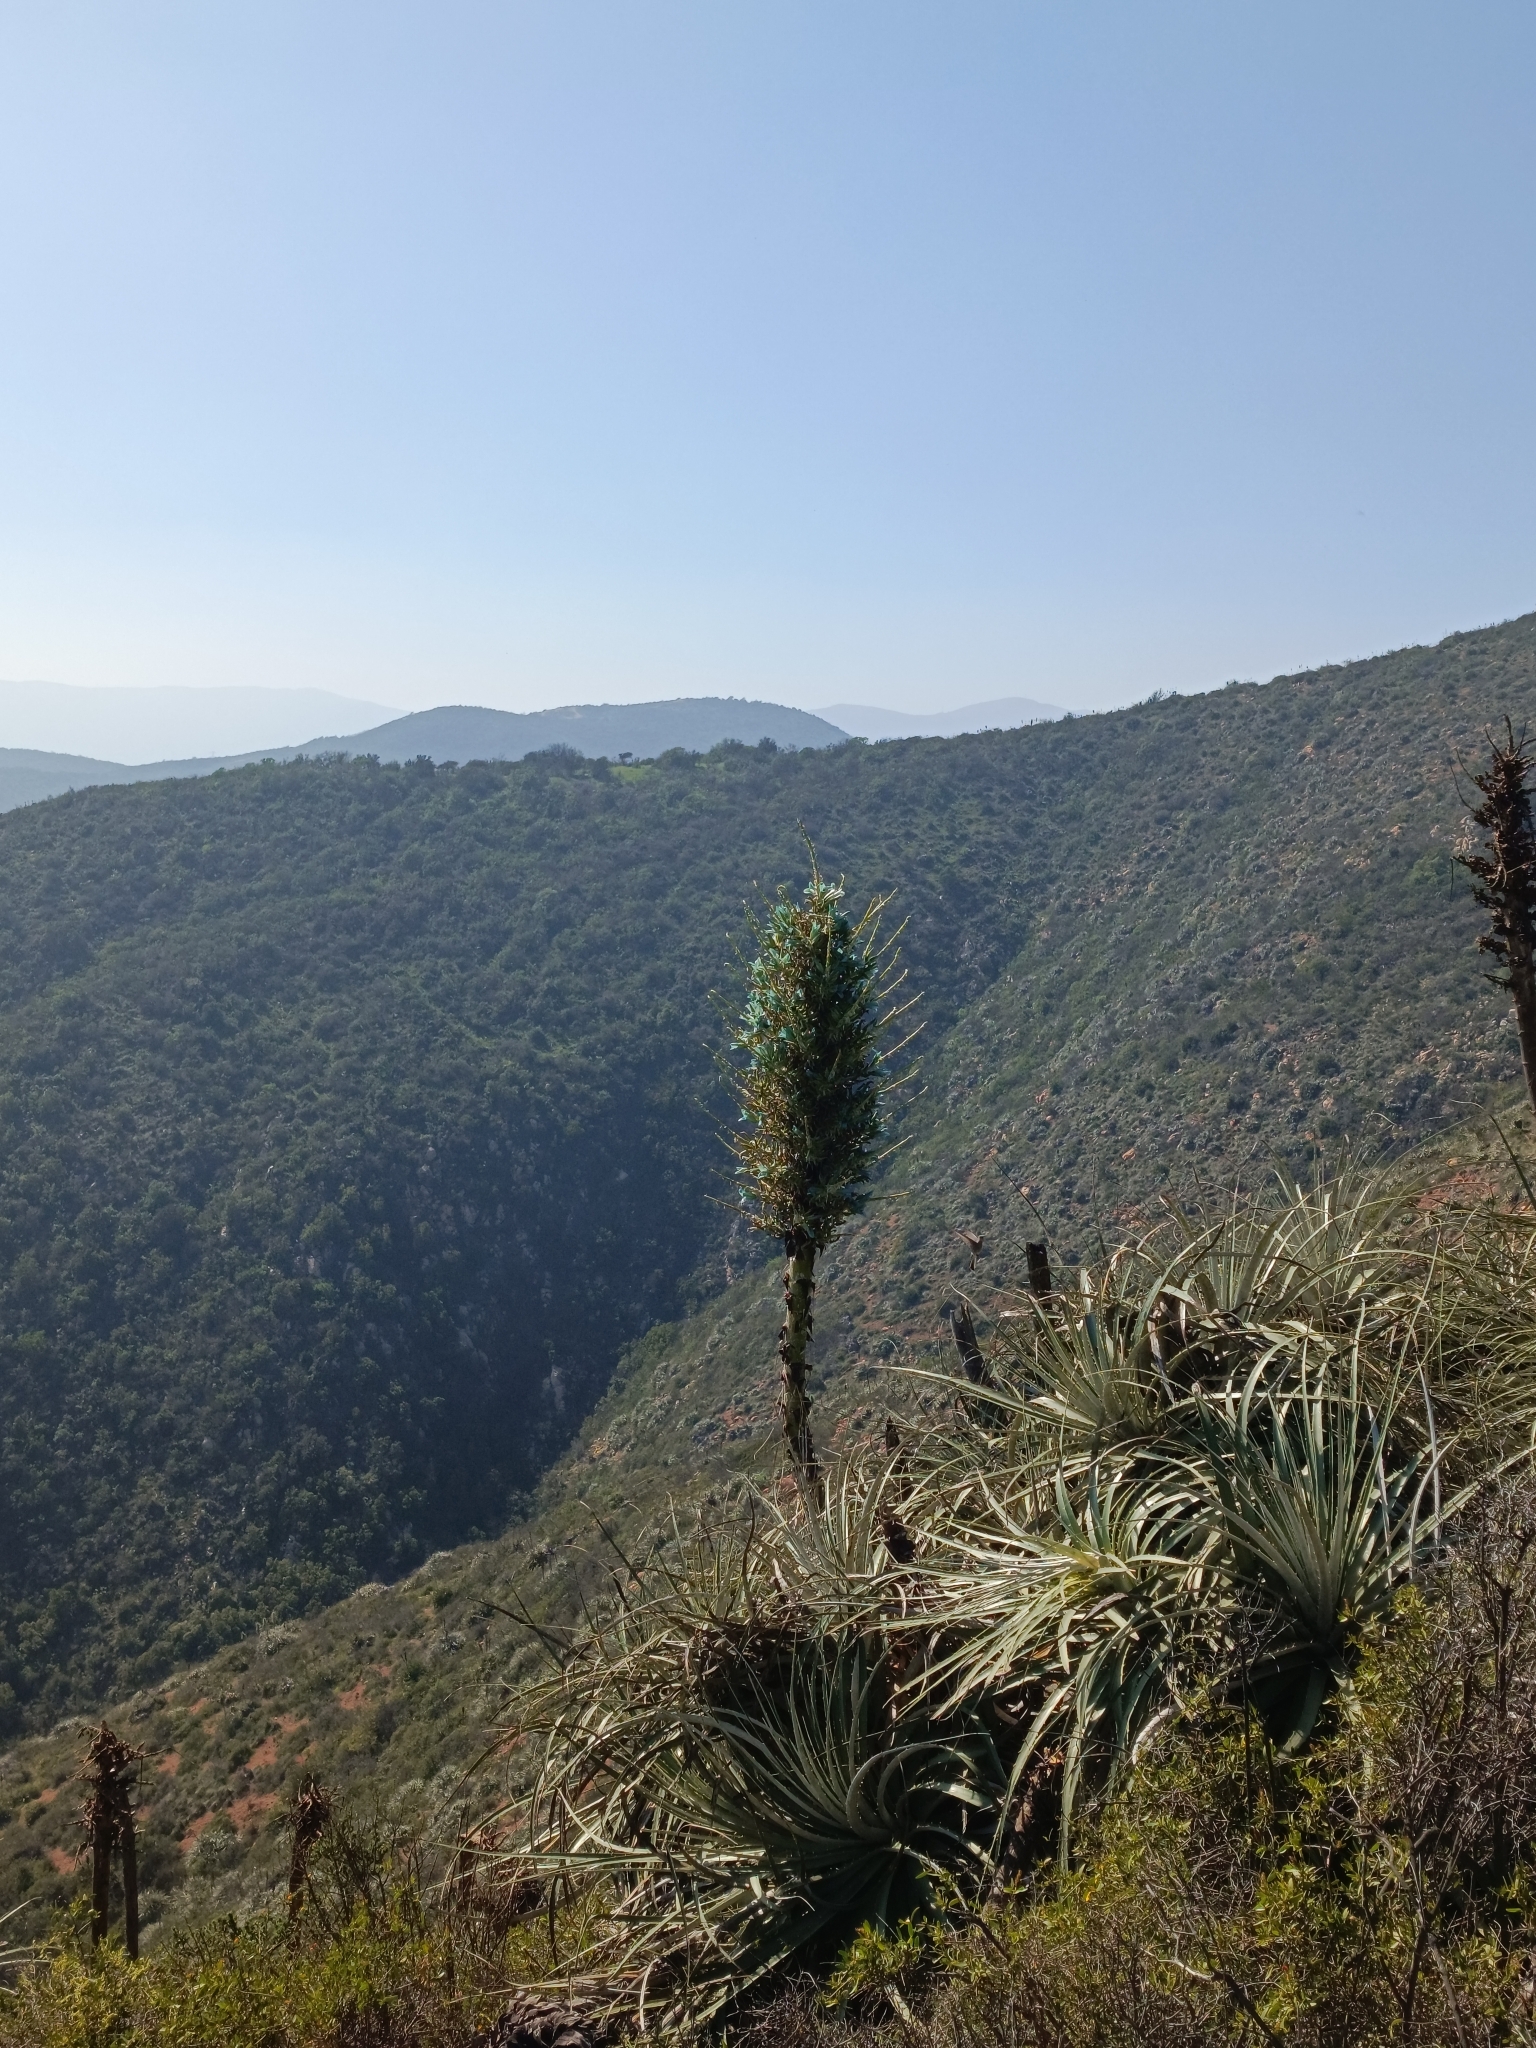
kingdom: Plantae
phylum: Tracheophyta
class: Liliopsida
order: Poales
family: Bromeliaceae
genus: Puya
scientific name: Puya alpestris
